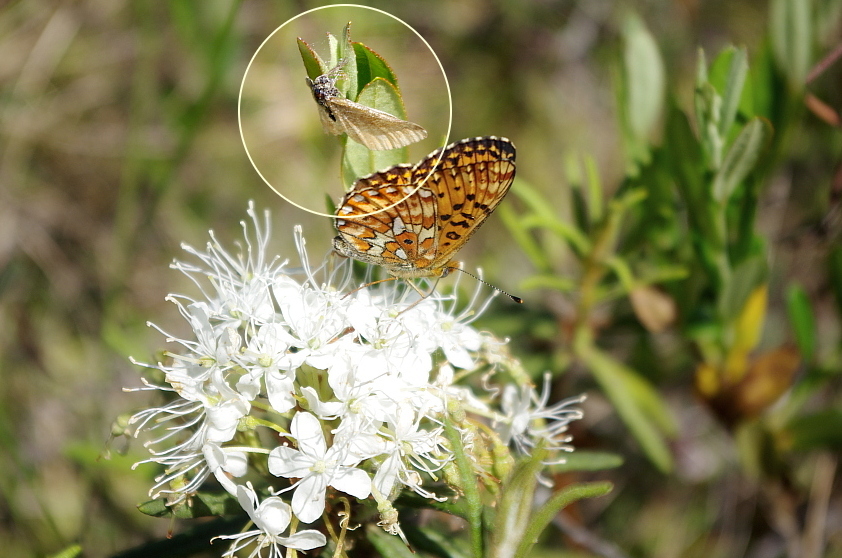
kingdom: Animalia
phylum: Arthropoda
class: Insecta
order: Lepidoptera
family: Geometridae
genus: Ematurga
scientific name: Ematurga atomaria
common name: Common heath
